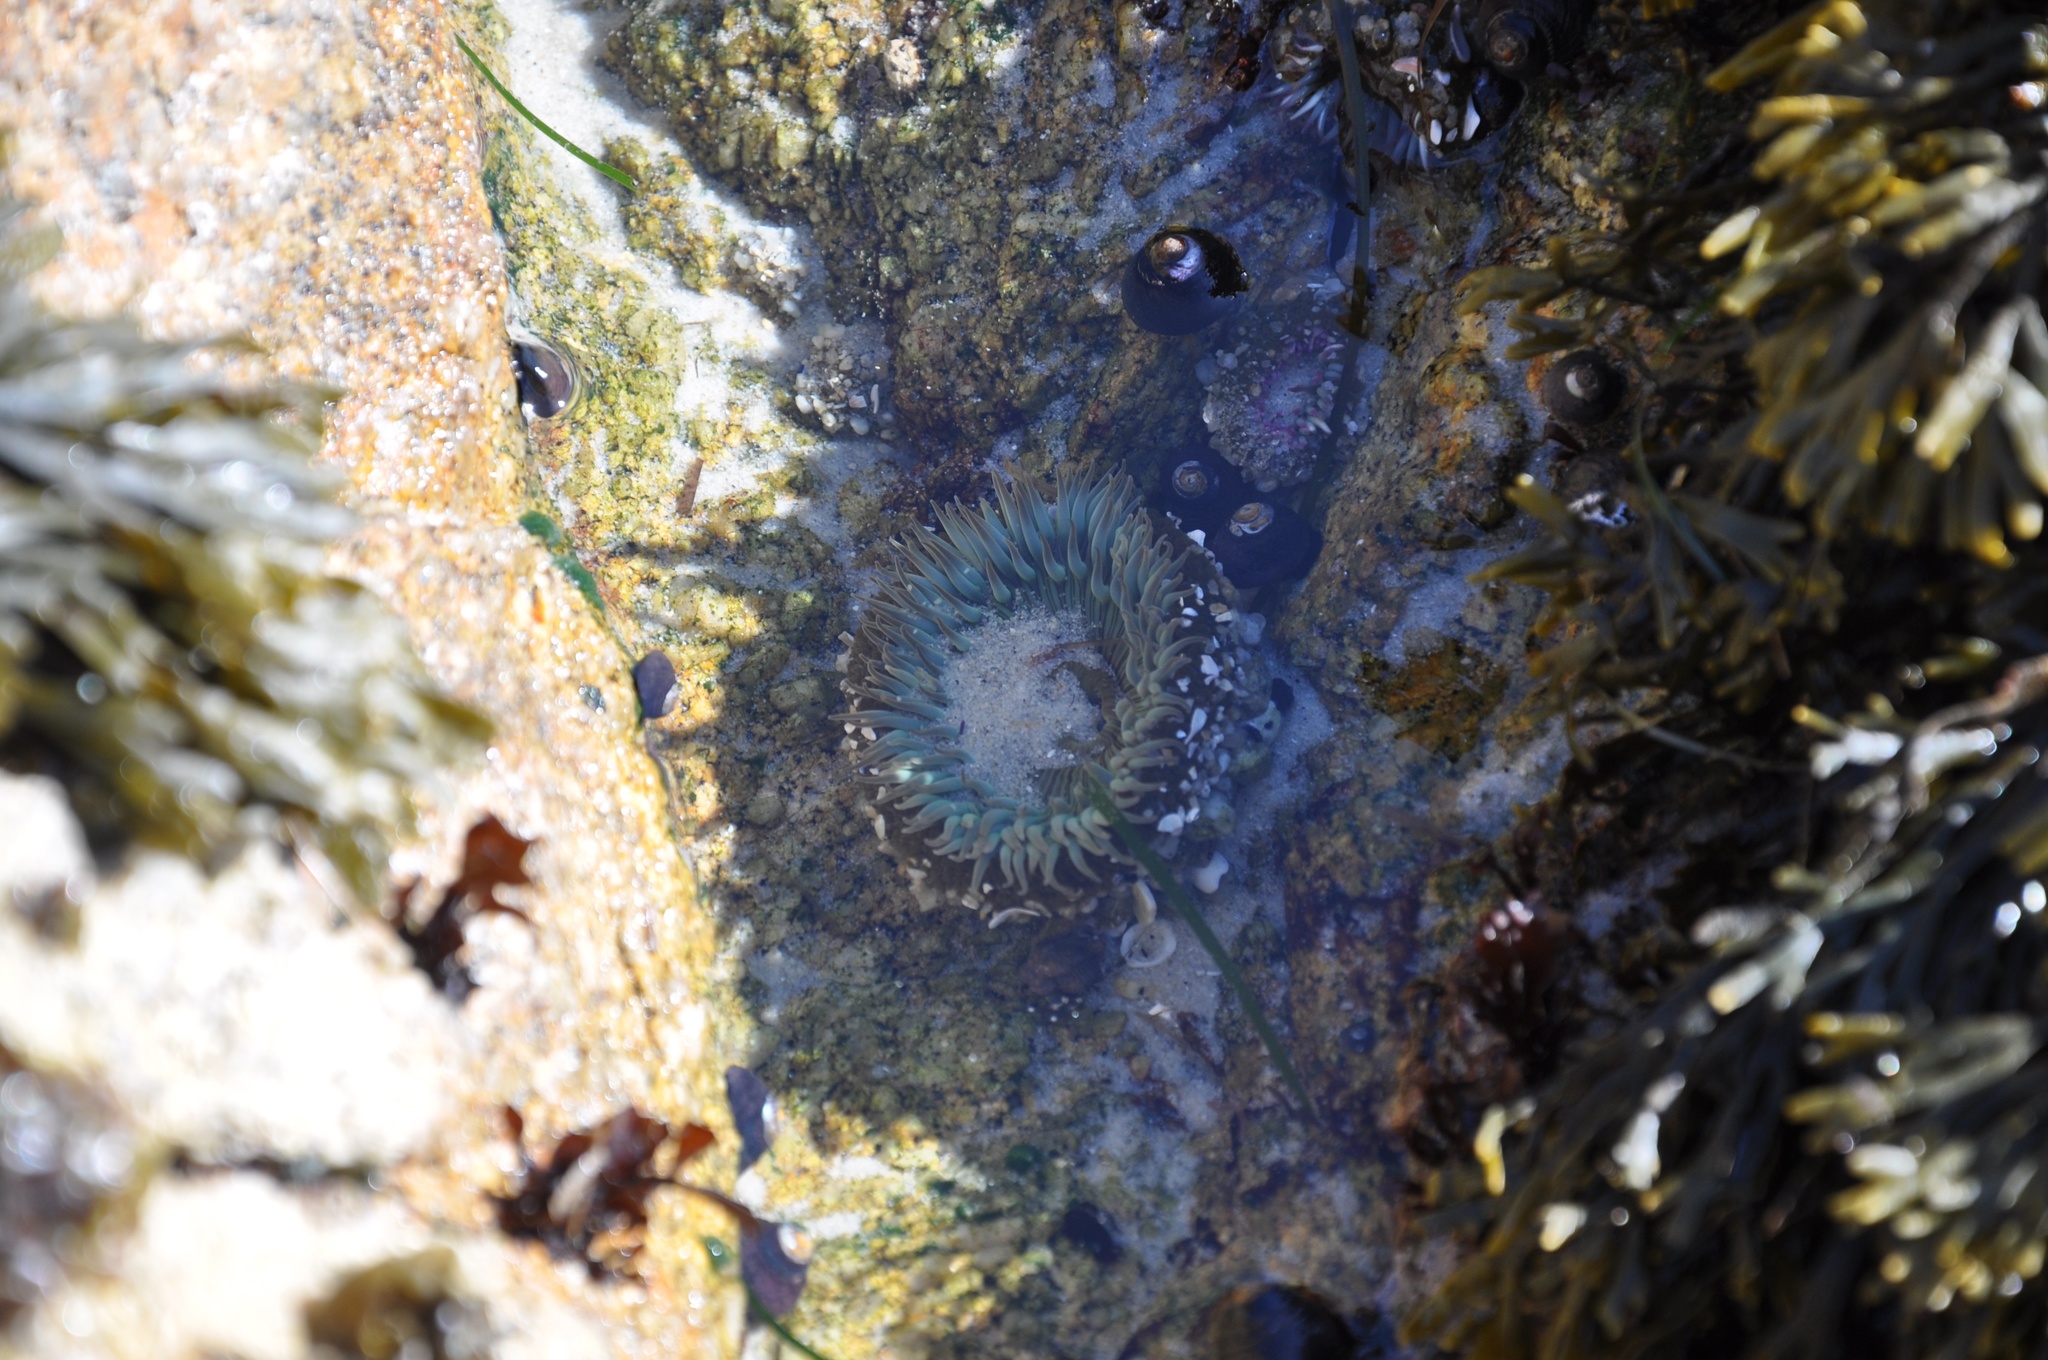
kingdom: Animalia
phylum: Cnidaria
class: Anthozoa
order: Actiniaria
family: Actiniidae
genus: Anthopleura
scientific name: Anthopleura sola
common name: Sun anemone
